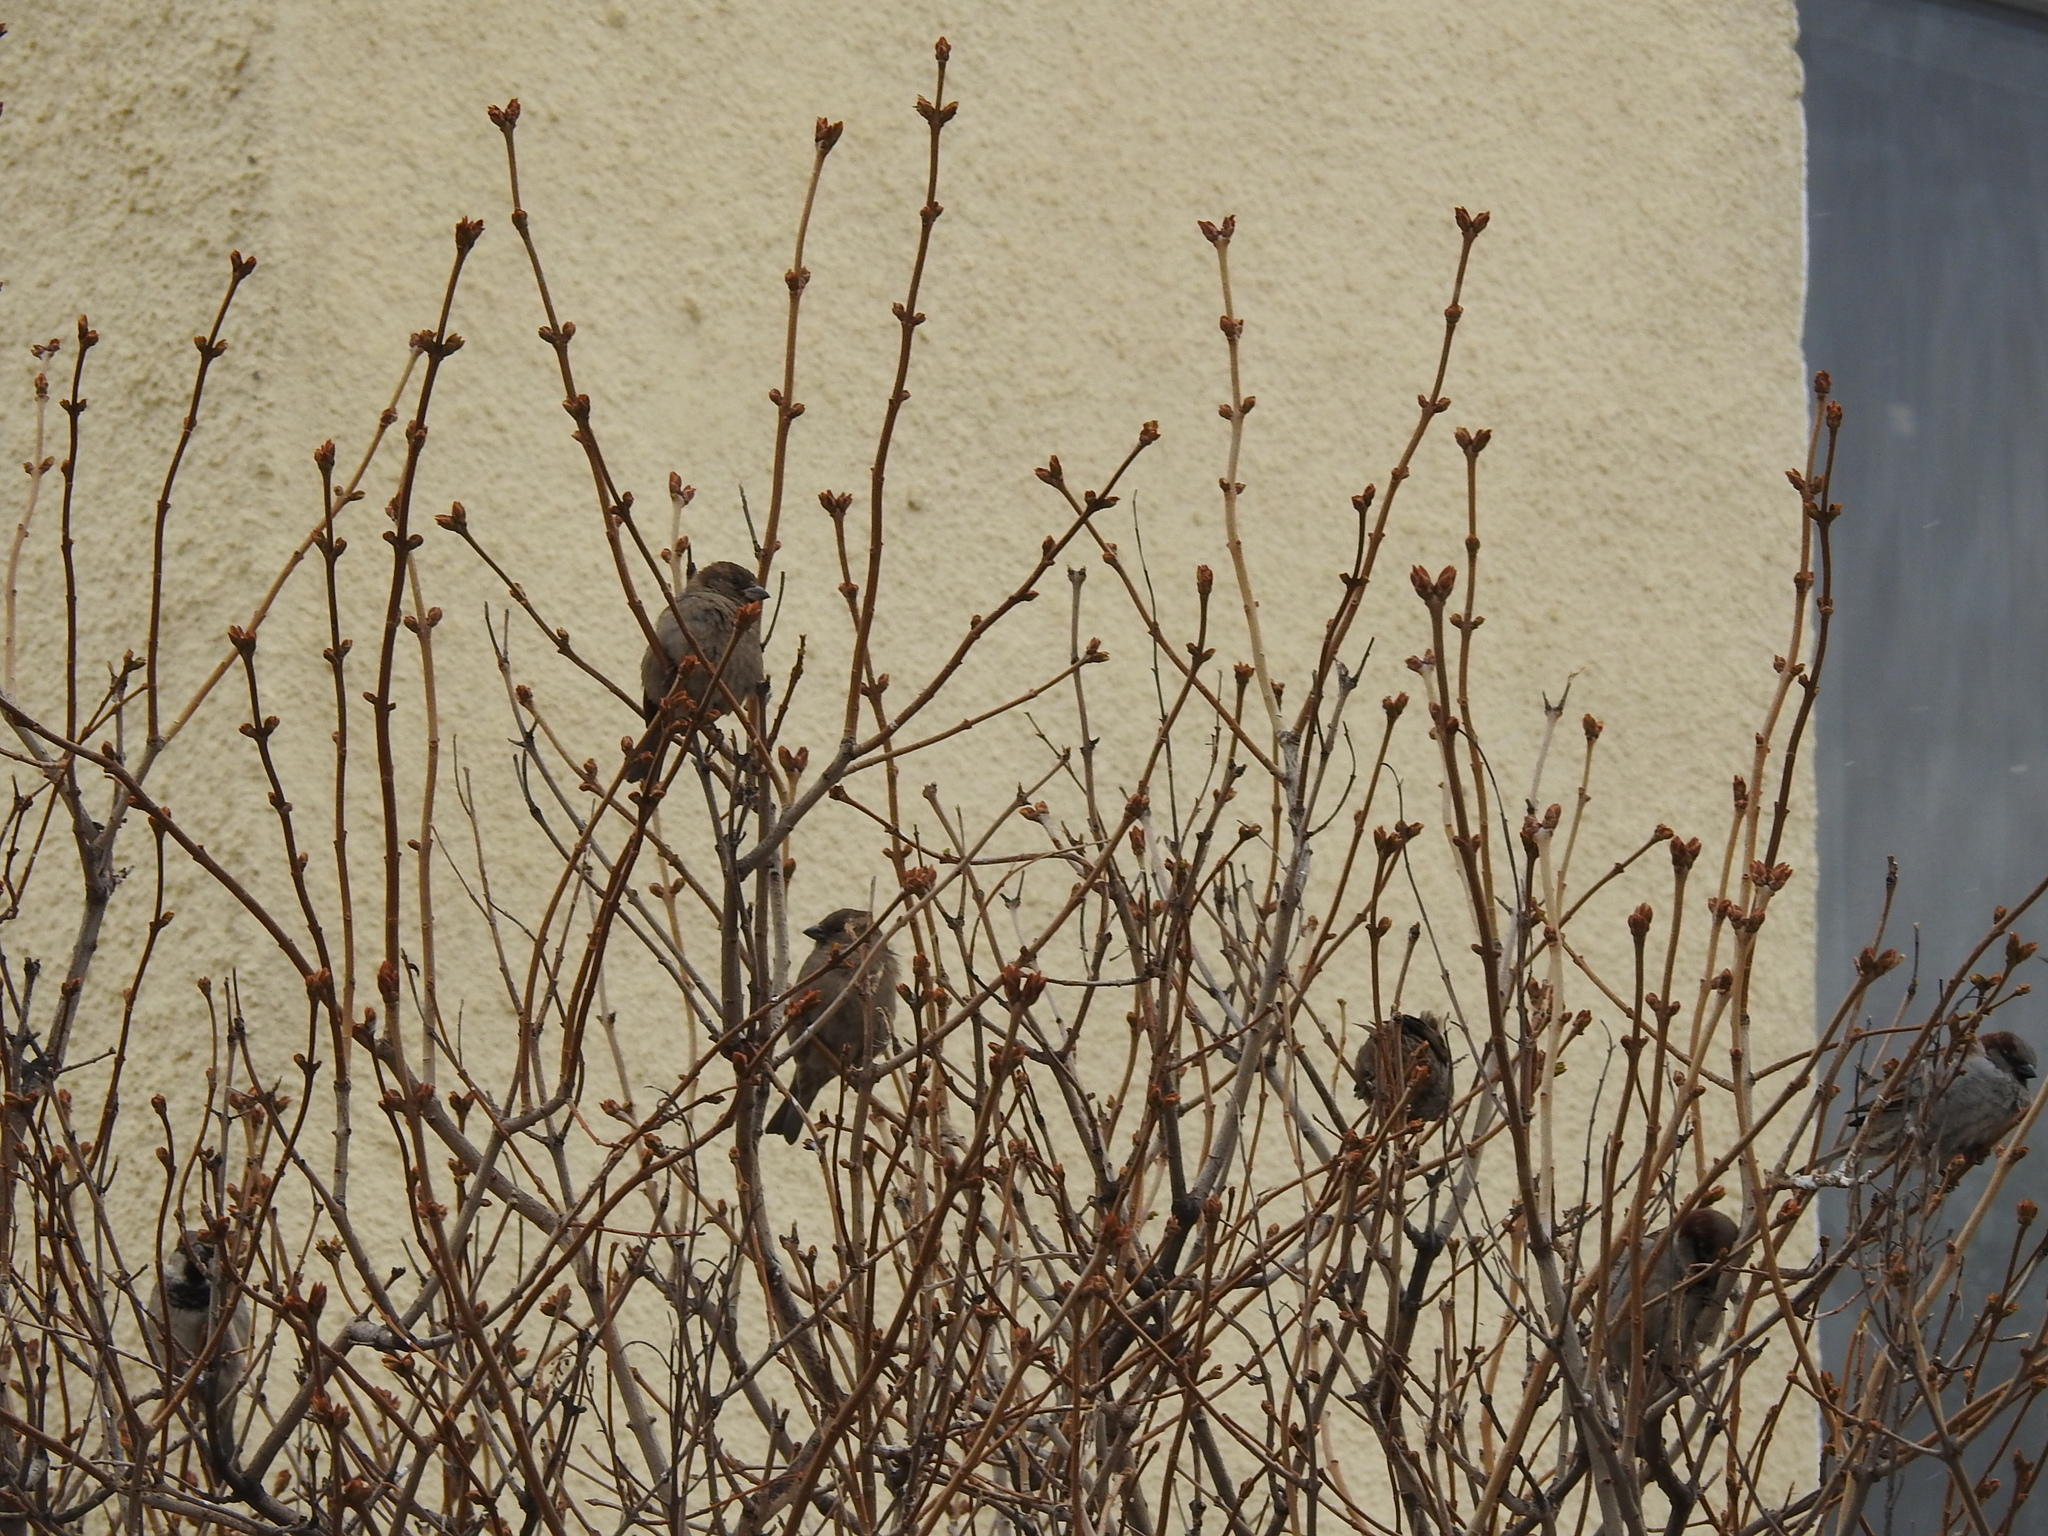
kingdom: Animalia
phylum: Chordata
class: Aves
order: Passeriformes
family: Passeridae
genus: Passer
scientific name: Passer domesticus
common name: House sparrow
